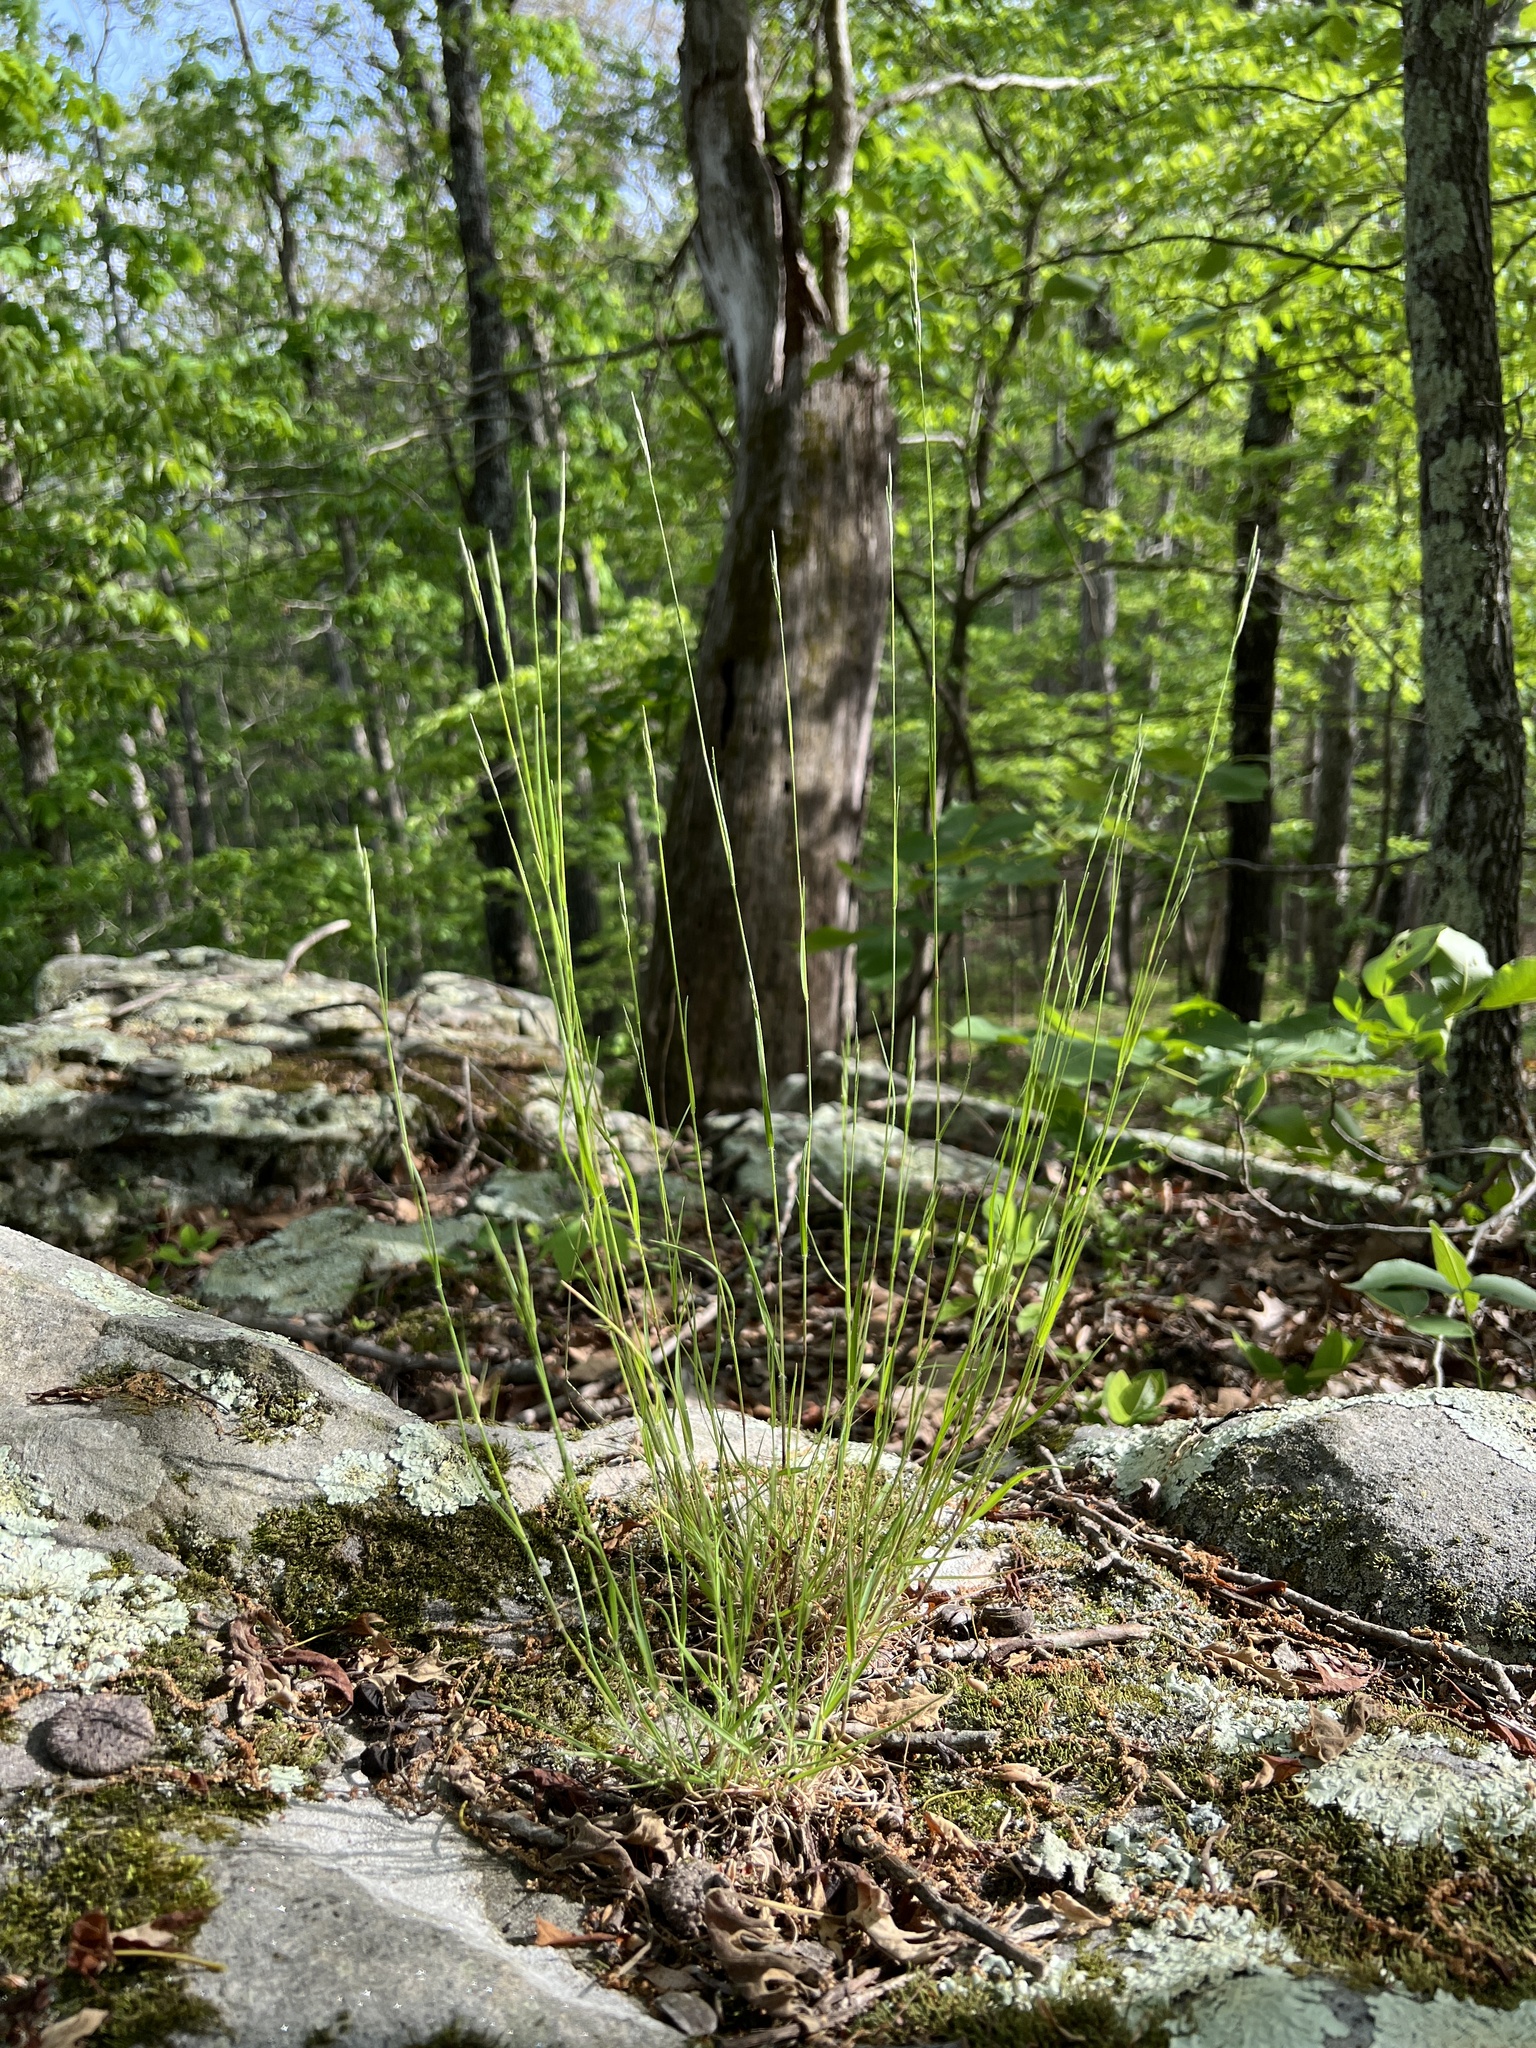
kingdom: Plantae
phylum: Tracheophyta
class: Liliopsida
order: Poales
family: Poaceae
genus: Danthonia
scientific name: Danthonia spicata
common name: Common wild oatgrass
